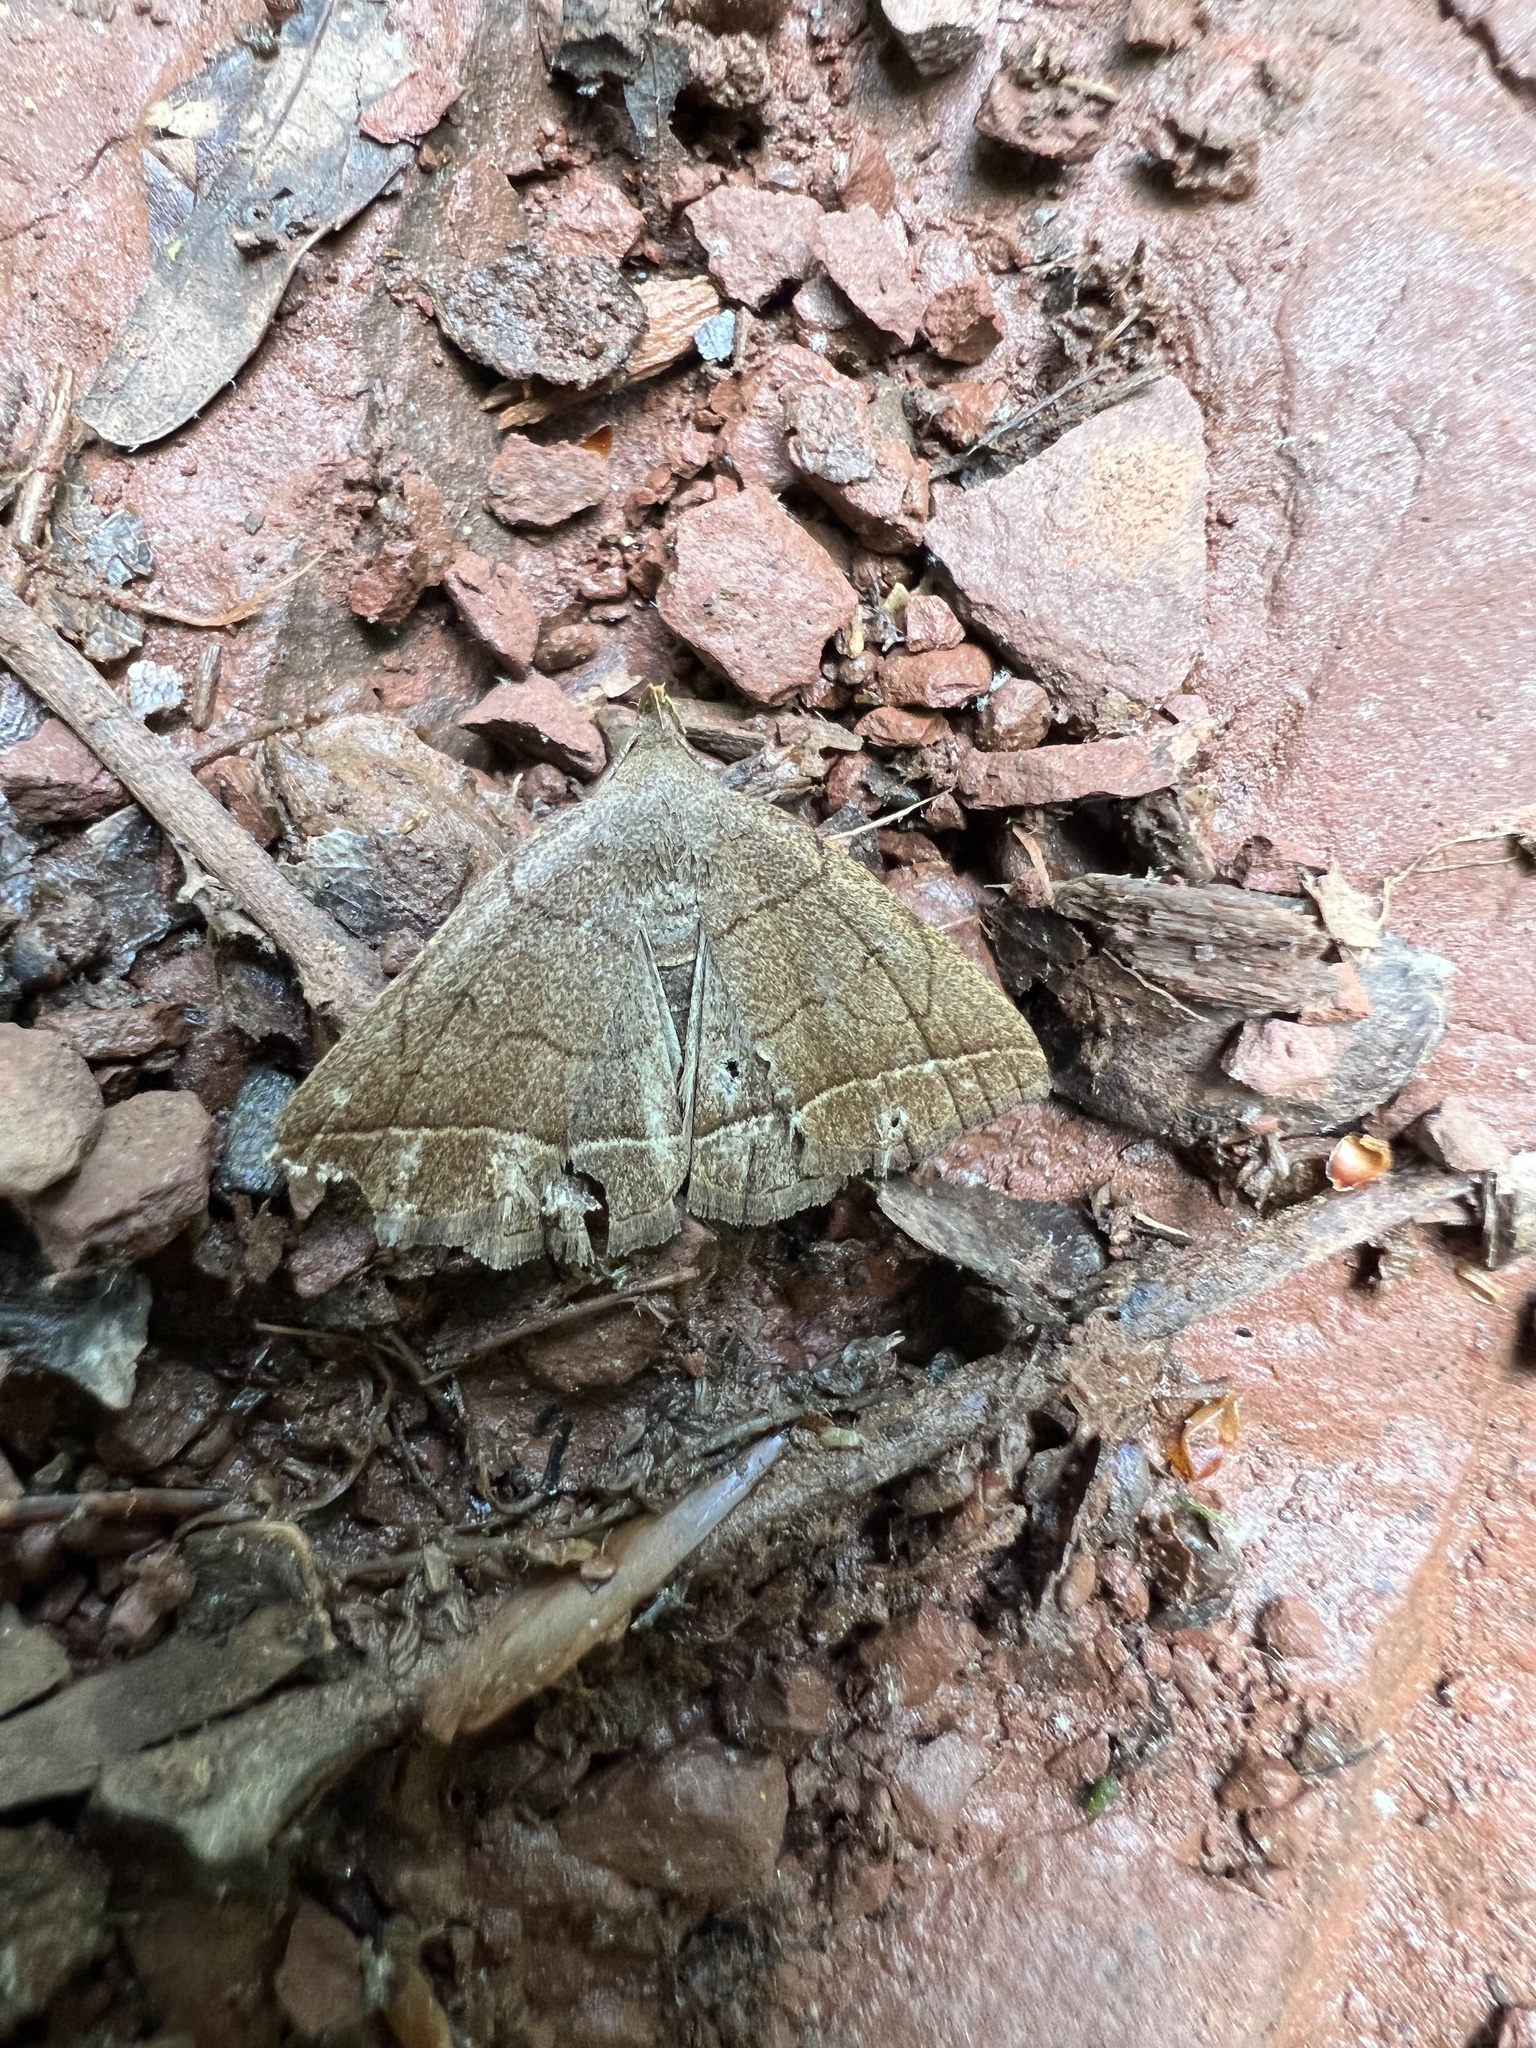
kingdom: Animalia
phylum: Arthropoda
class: Insecta
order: Lepidoptera
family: Erebidae
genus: Zanclognatha
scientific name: Zanclognatha obscuripennis
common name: Dark fan-foot
